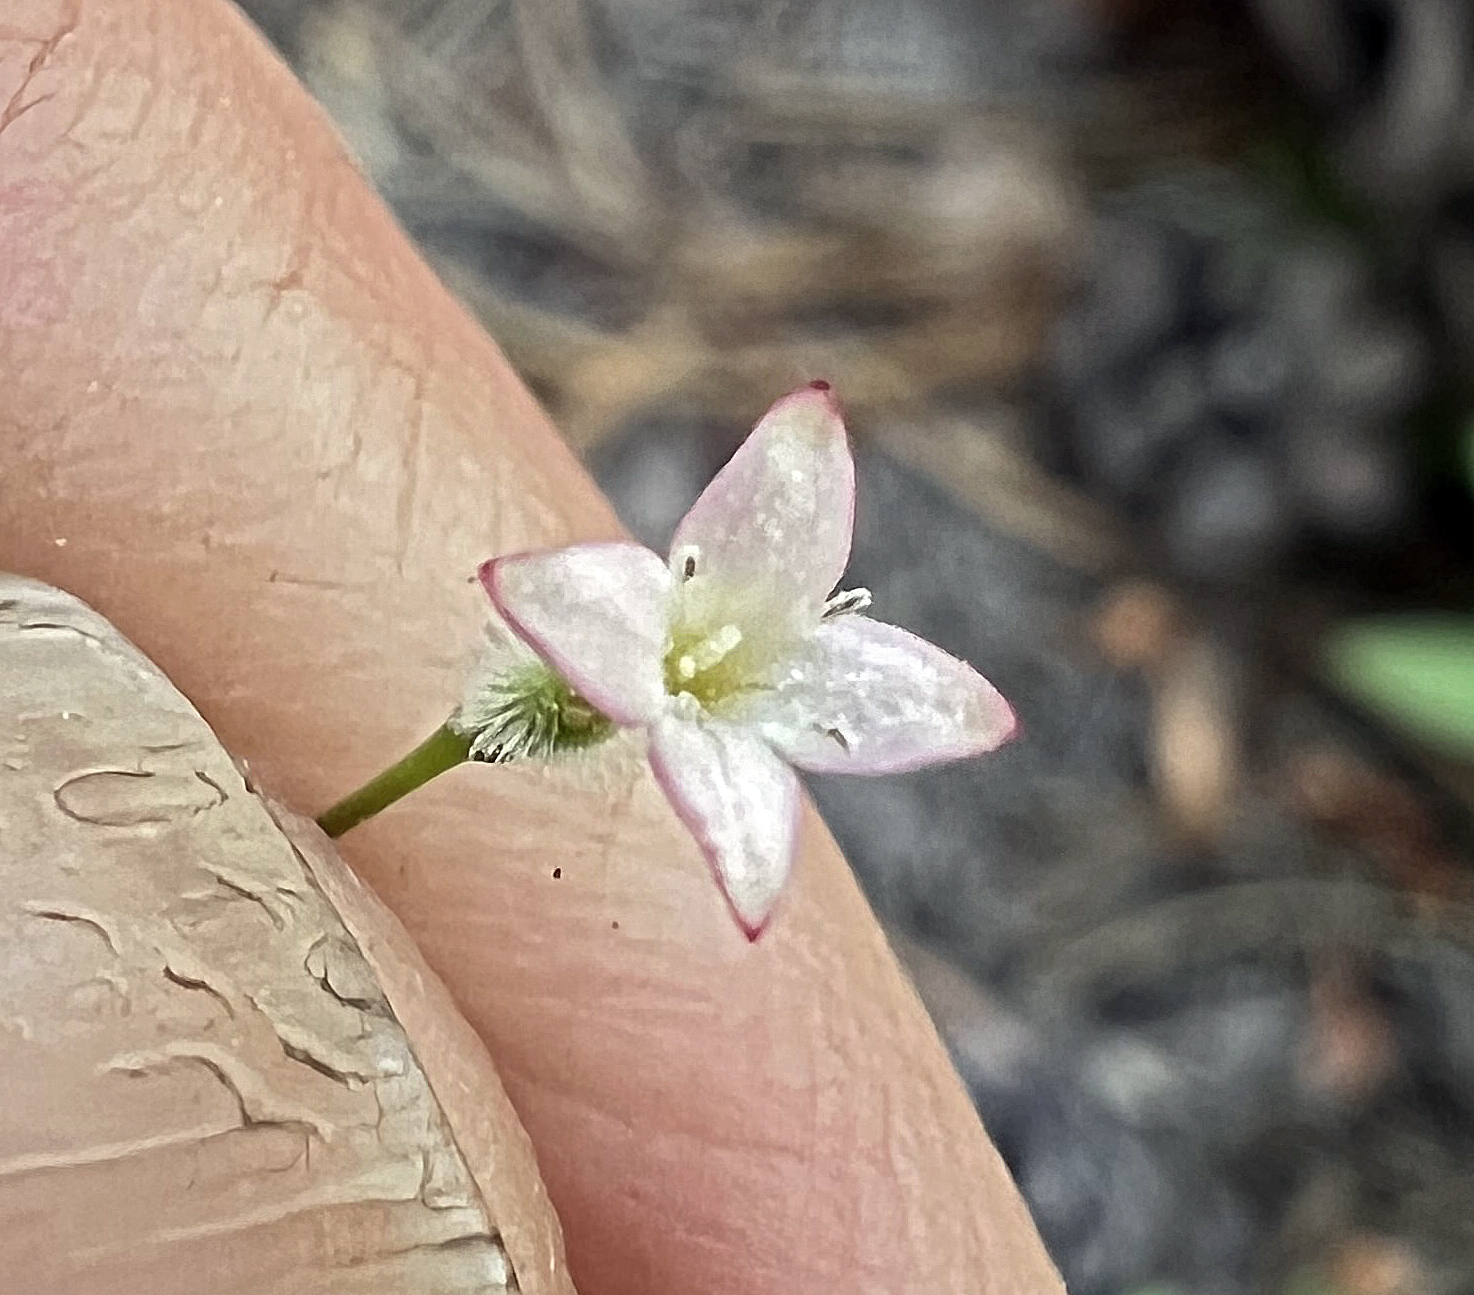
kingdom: Plantae
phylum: Tracheophyta
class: Magnoliopsida
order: Gentianales
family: Rubiaceae
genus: Kelloggia
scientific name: Kelloggia galioides
